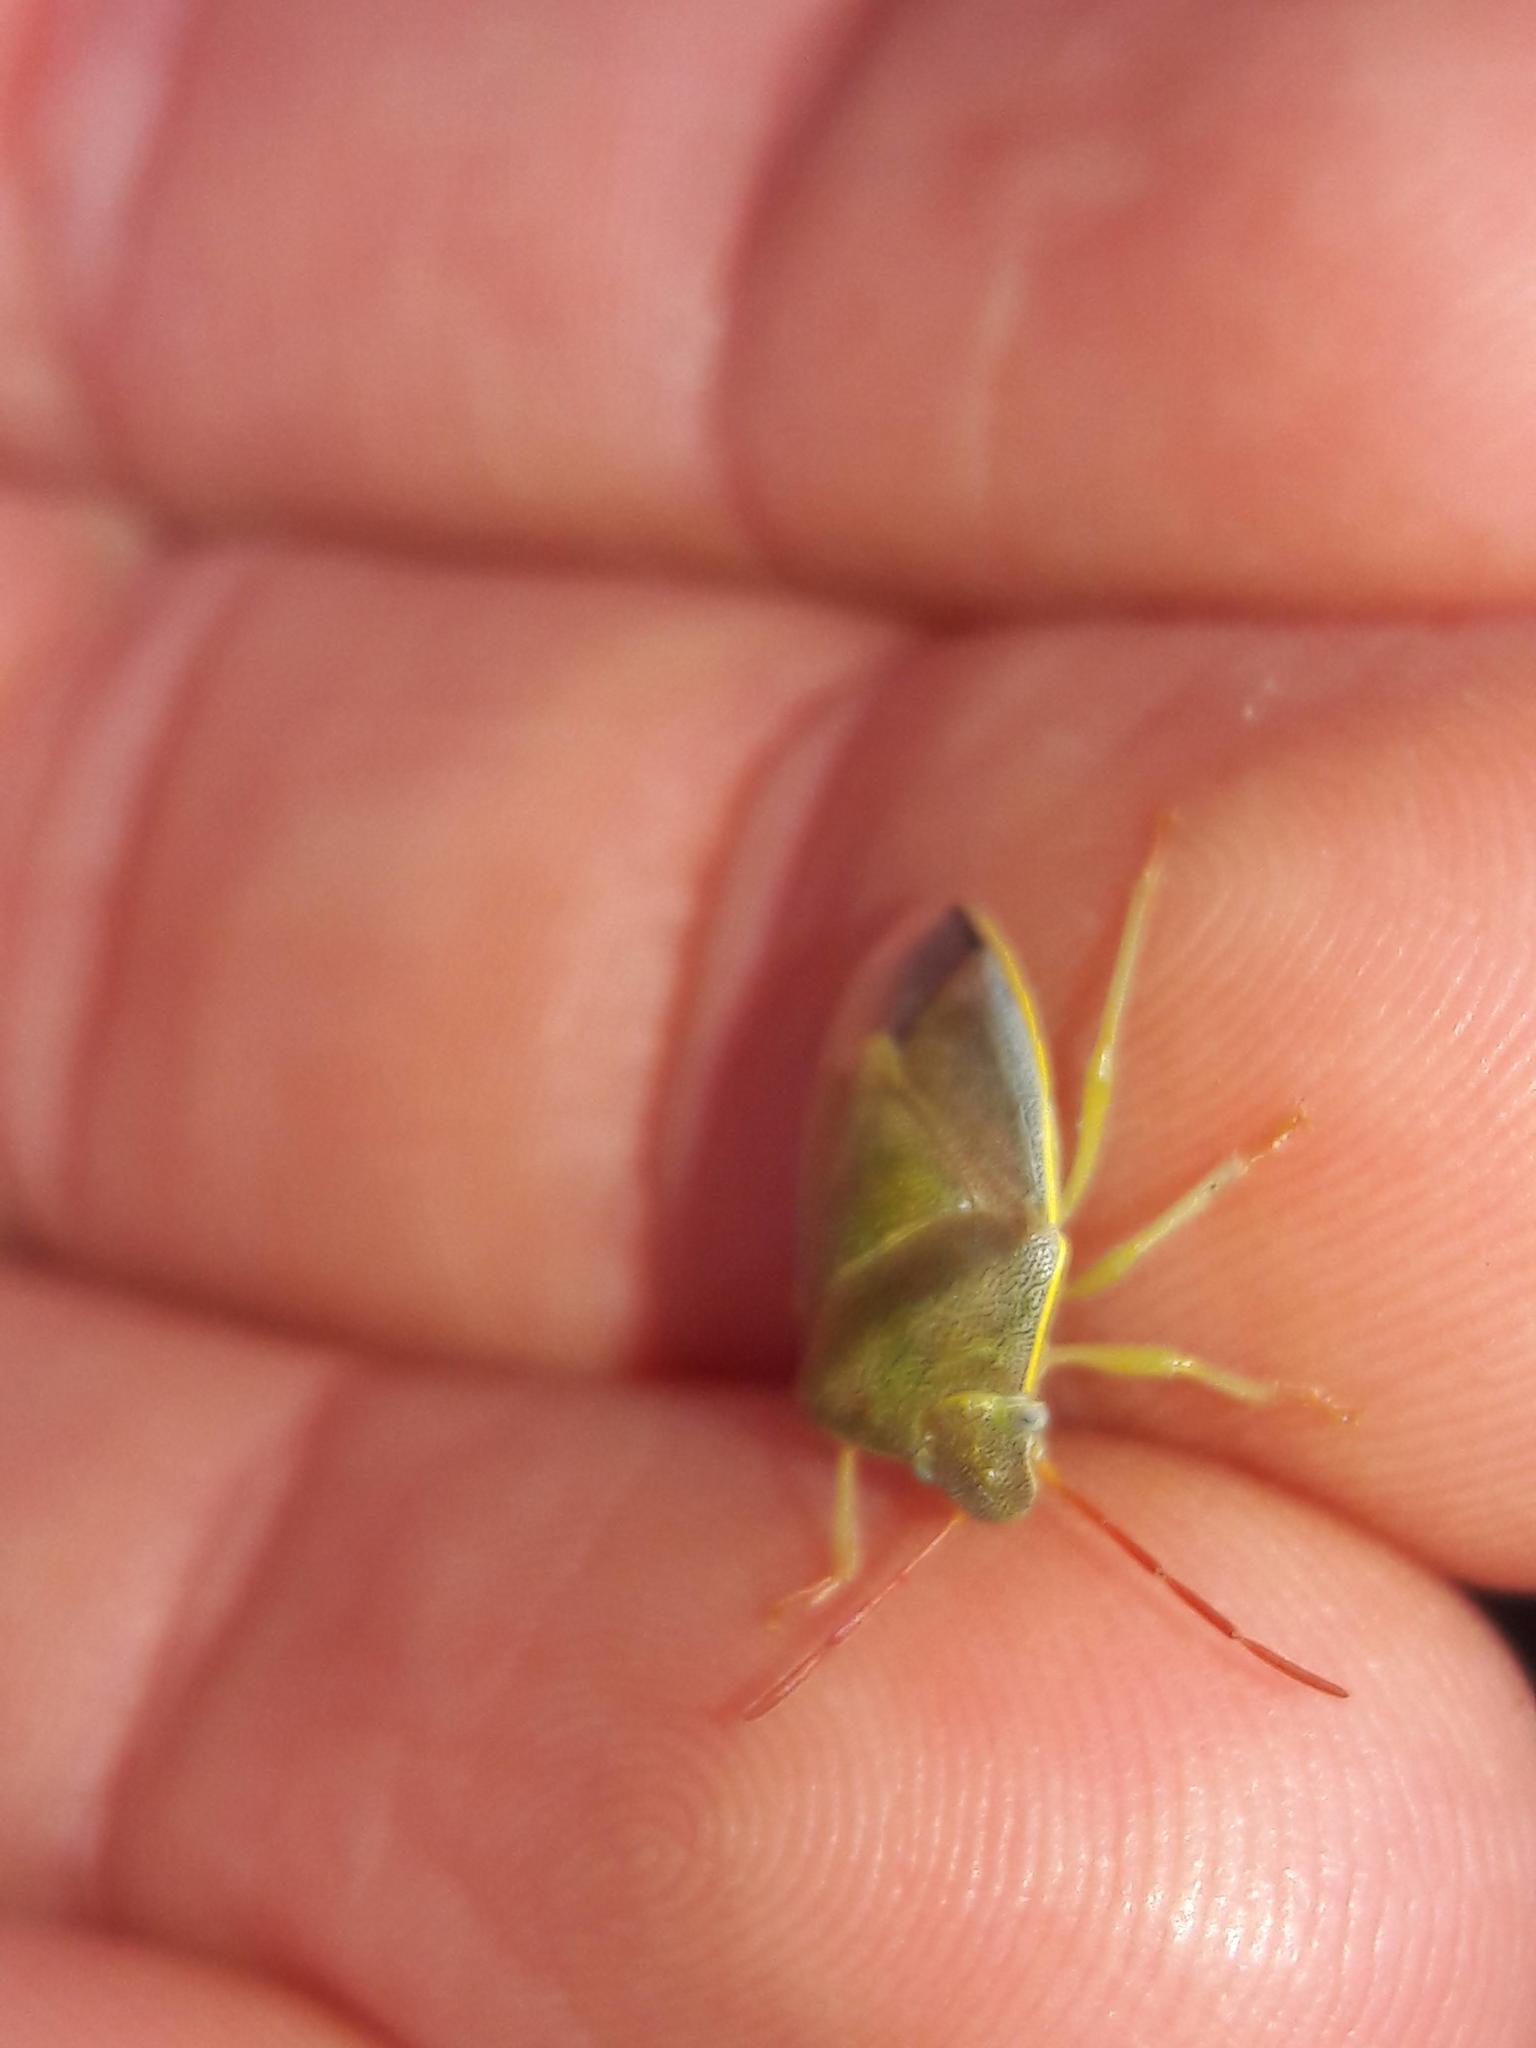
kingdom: Animalia
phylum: Arthropoda
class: Insecta
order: Hemiptera
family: Pentatomidae
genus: Piezodorus
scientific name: Piezodorus lituratus
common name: Stink bug
